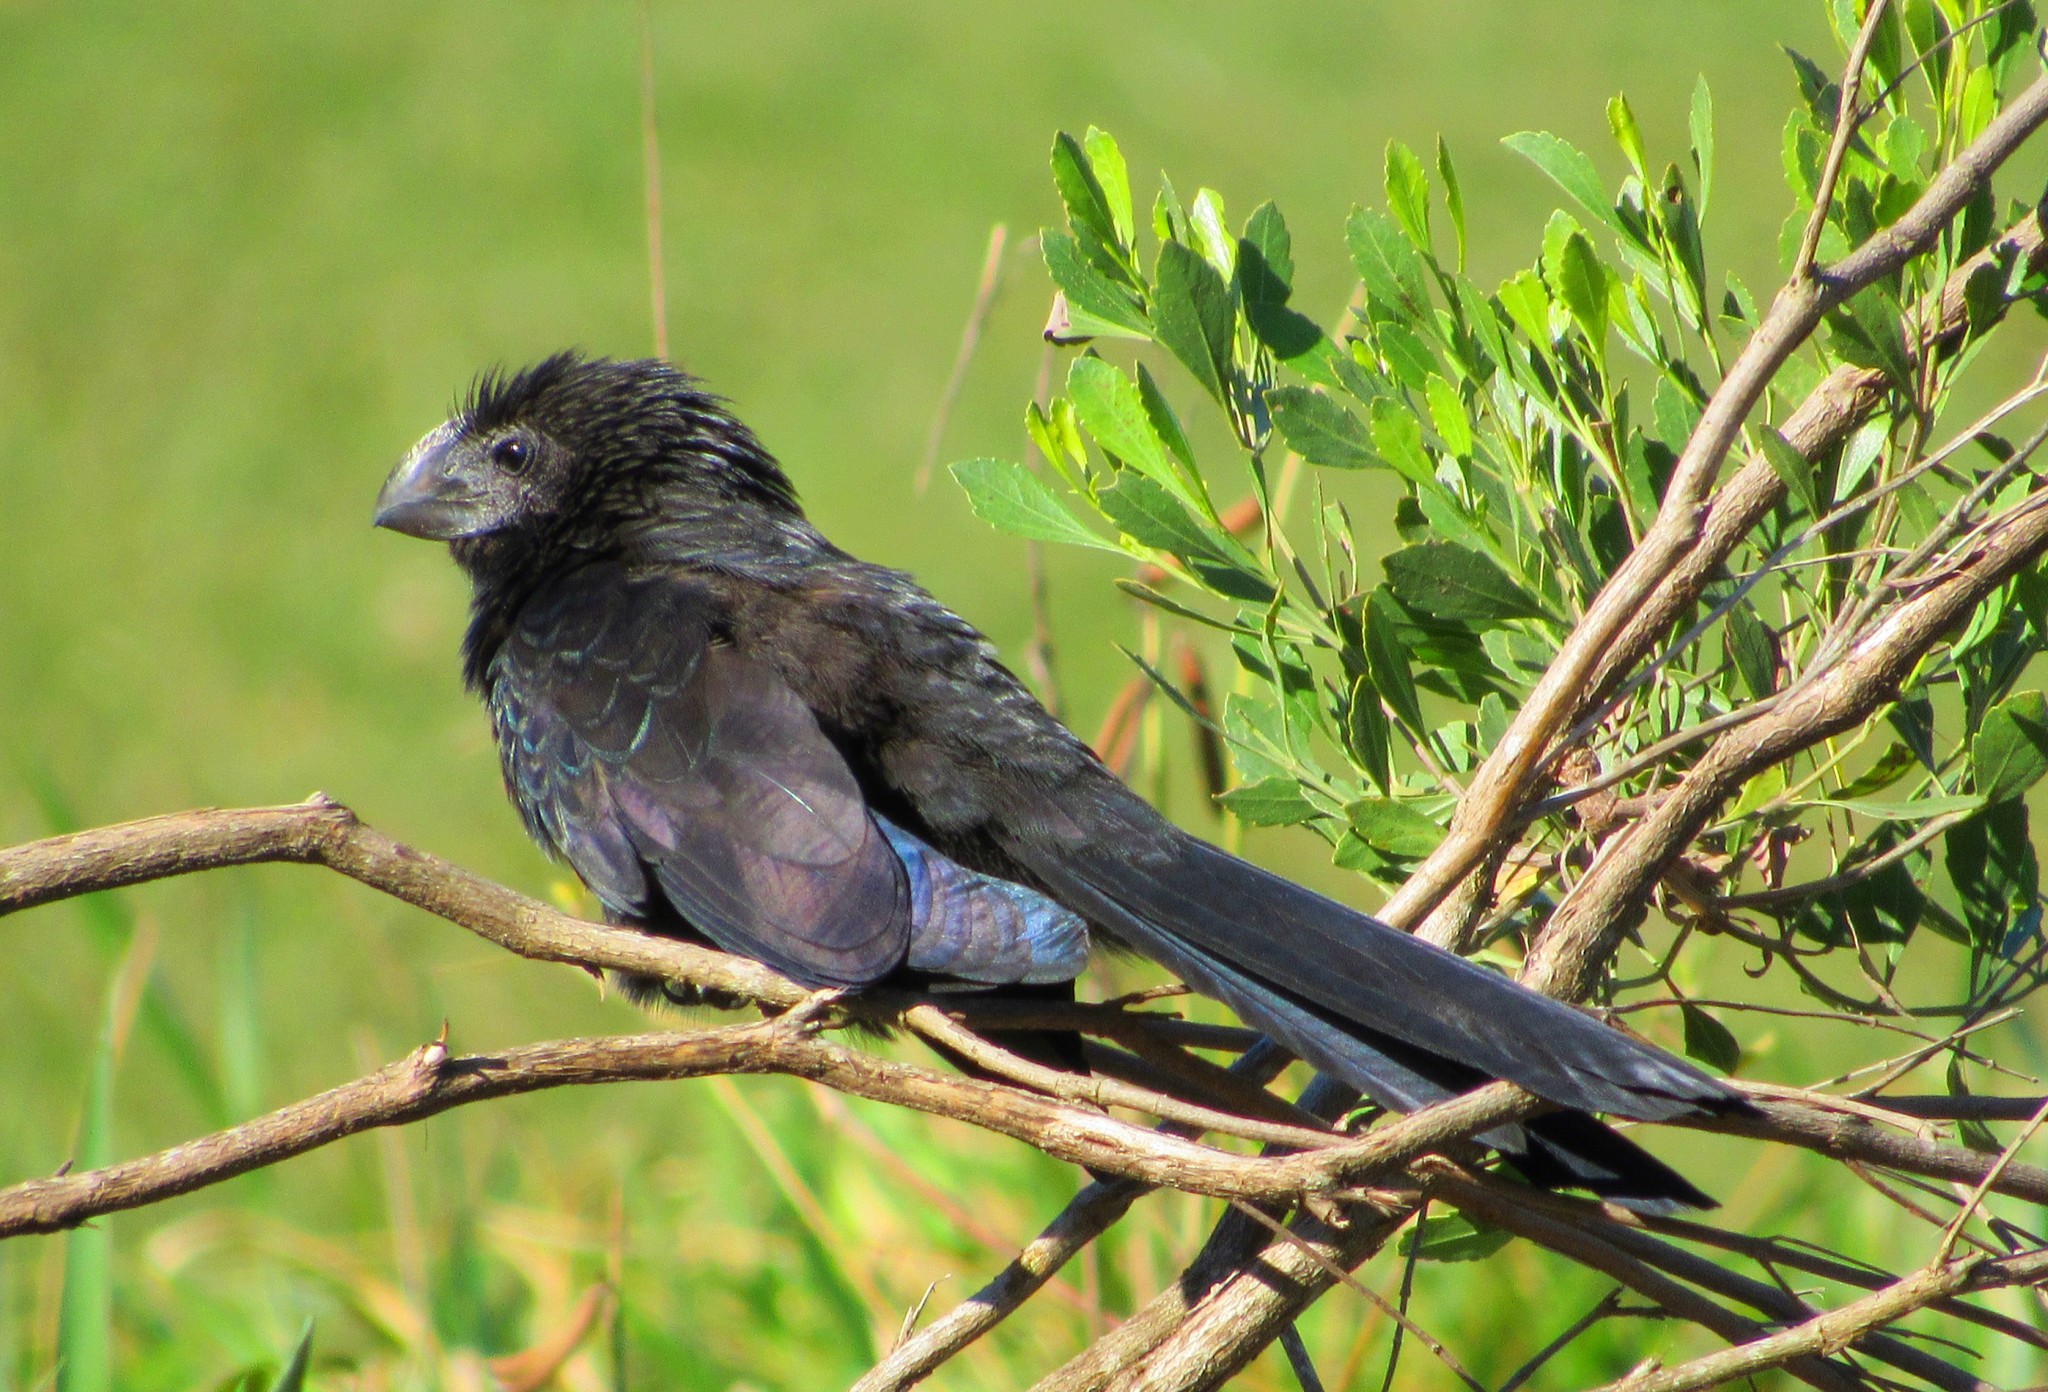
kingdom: Animalia
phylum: Chordata
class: Aves
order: Cuculiformes
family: Cuculidae
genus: Crotophaga
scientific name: Crotophaga ani
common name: Smooth-billed ani
